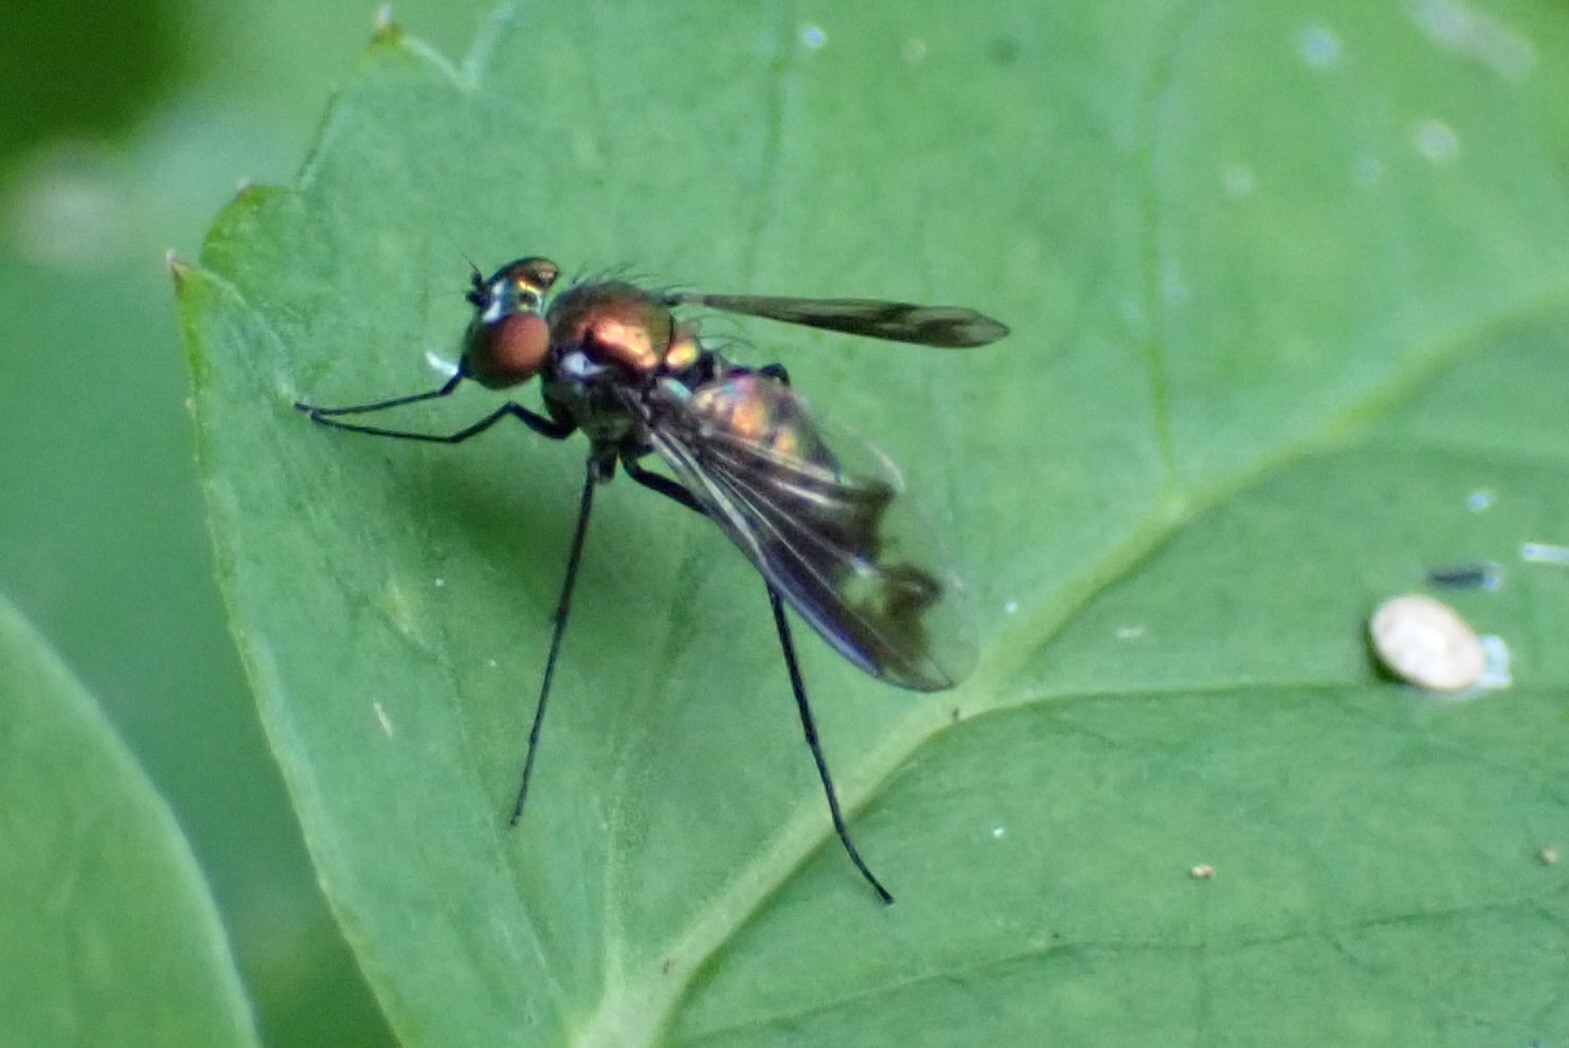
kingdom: Animalia
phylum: Arthropoda
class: Insecta
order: Diptera
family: Dolichopodidae
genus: Condylostylus
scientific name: Condylostylus patibulatus
